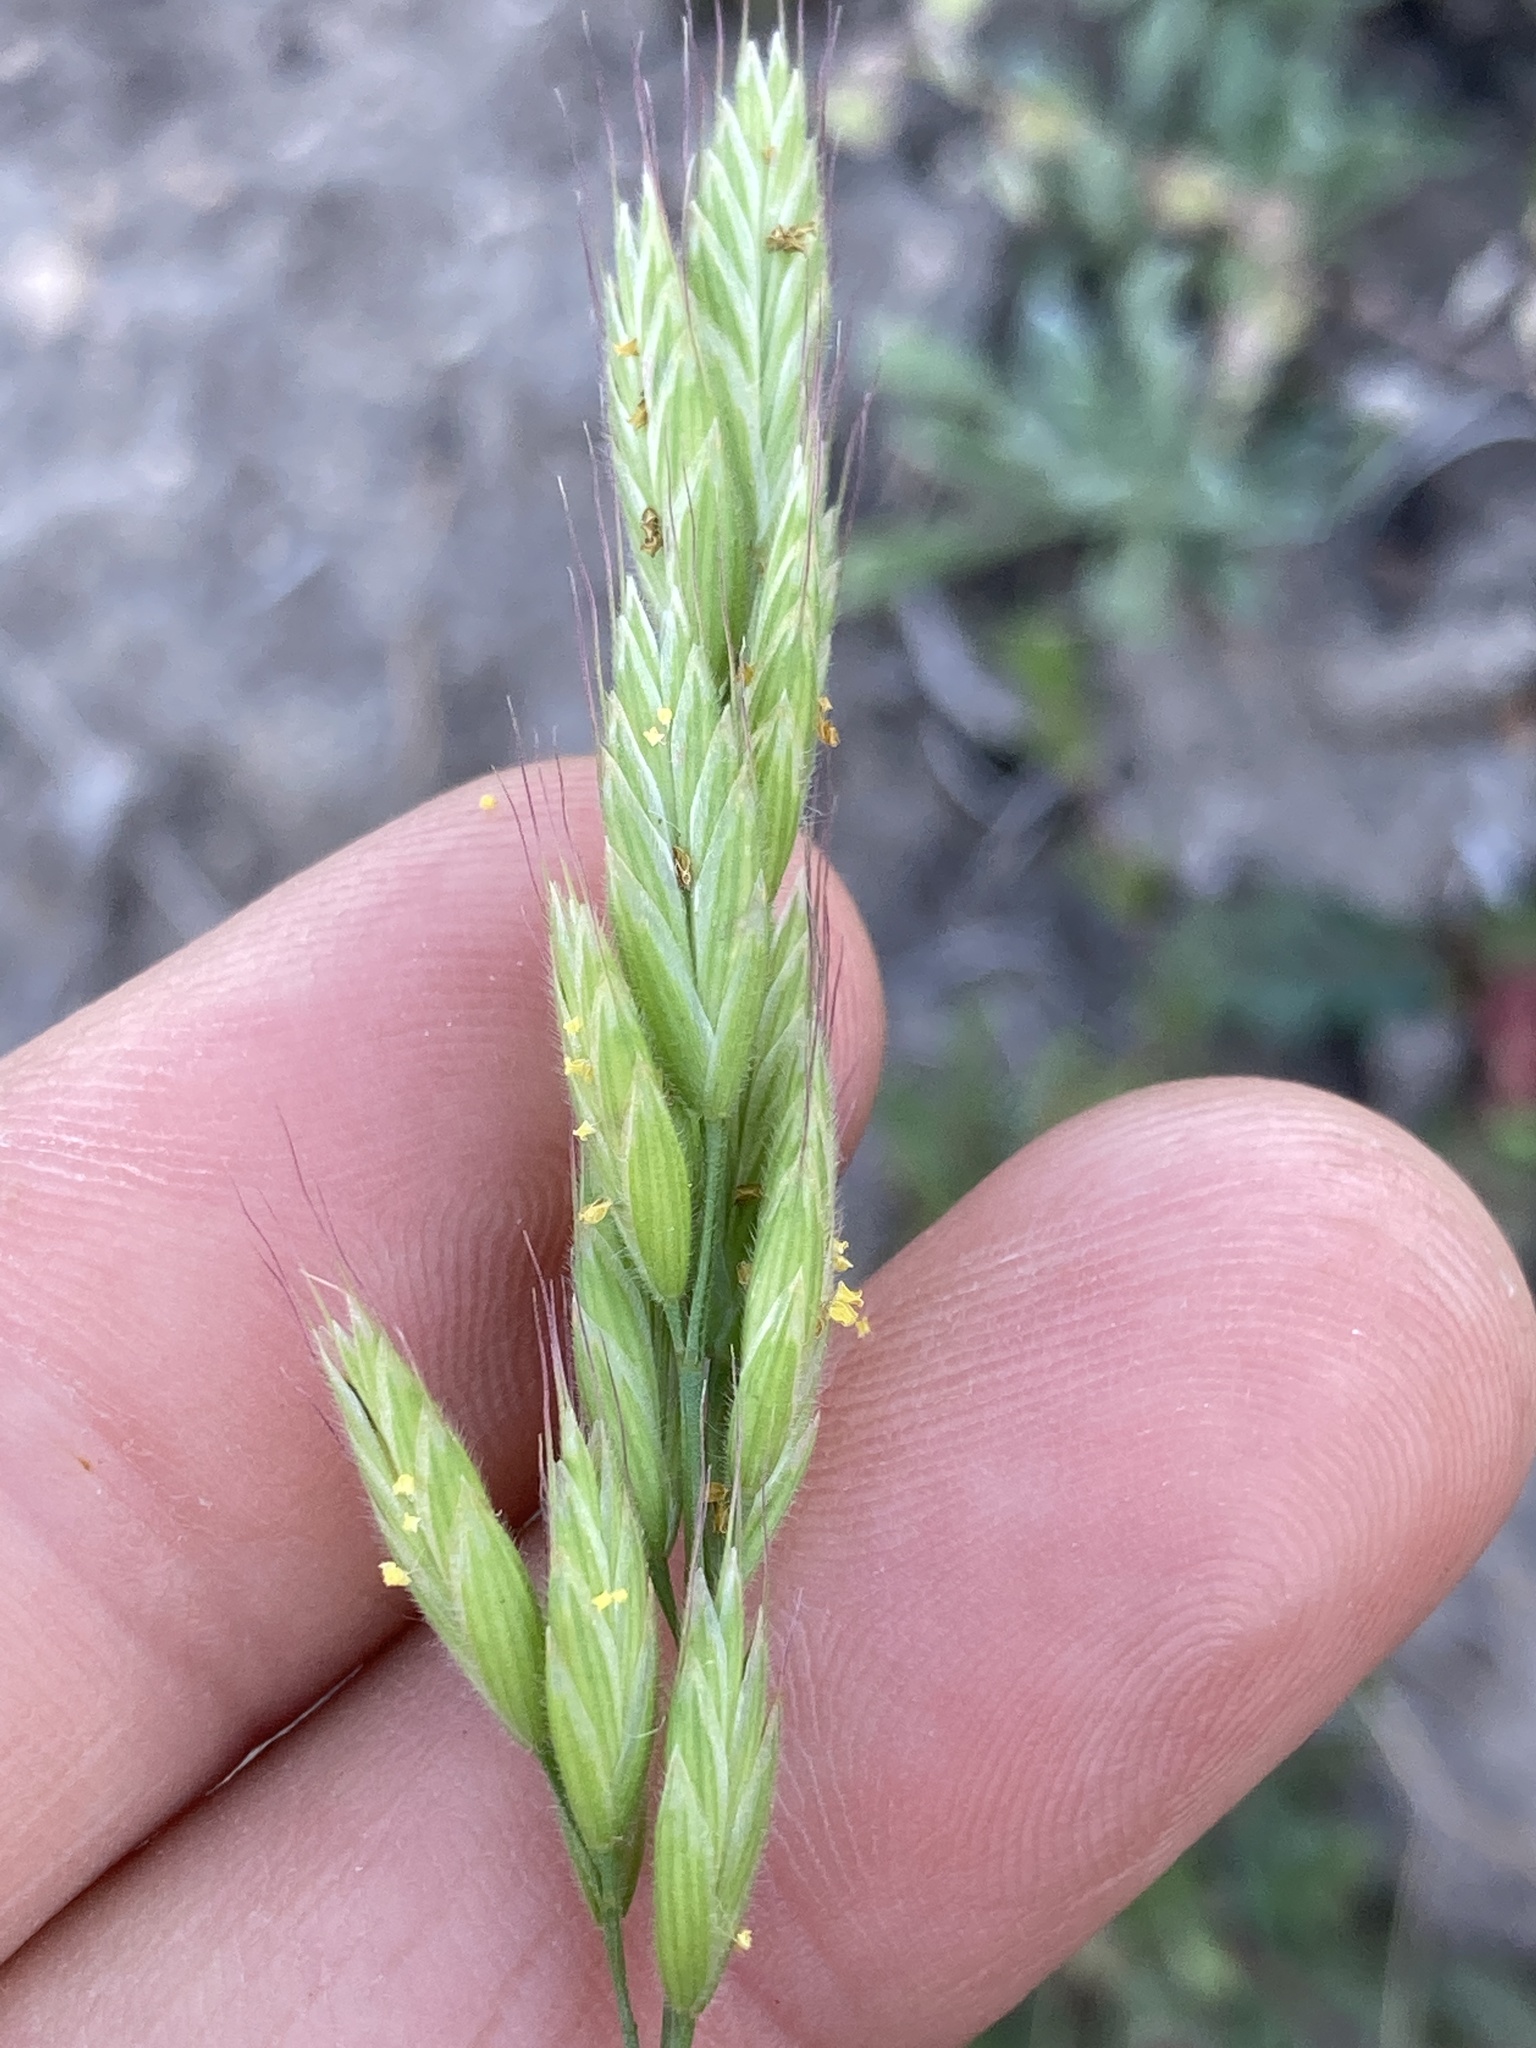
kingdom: Plantae
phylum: Tracheophyta
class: Liliopsida
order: Poales
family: Poaceae
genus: Bromus
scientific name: Bromus hordeaceus
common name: Soft brome
